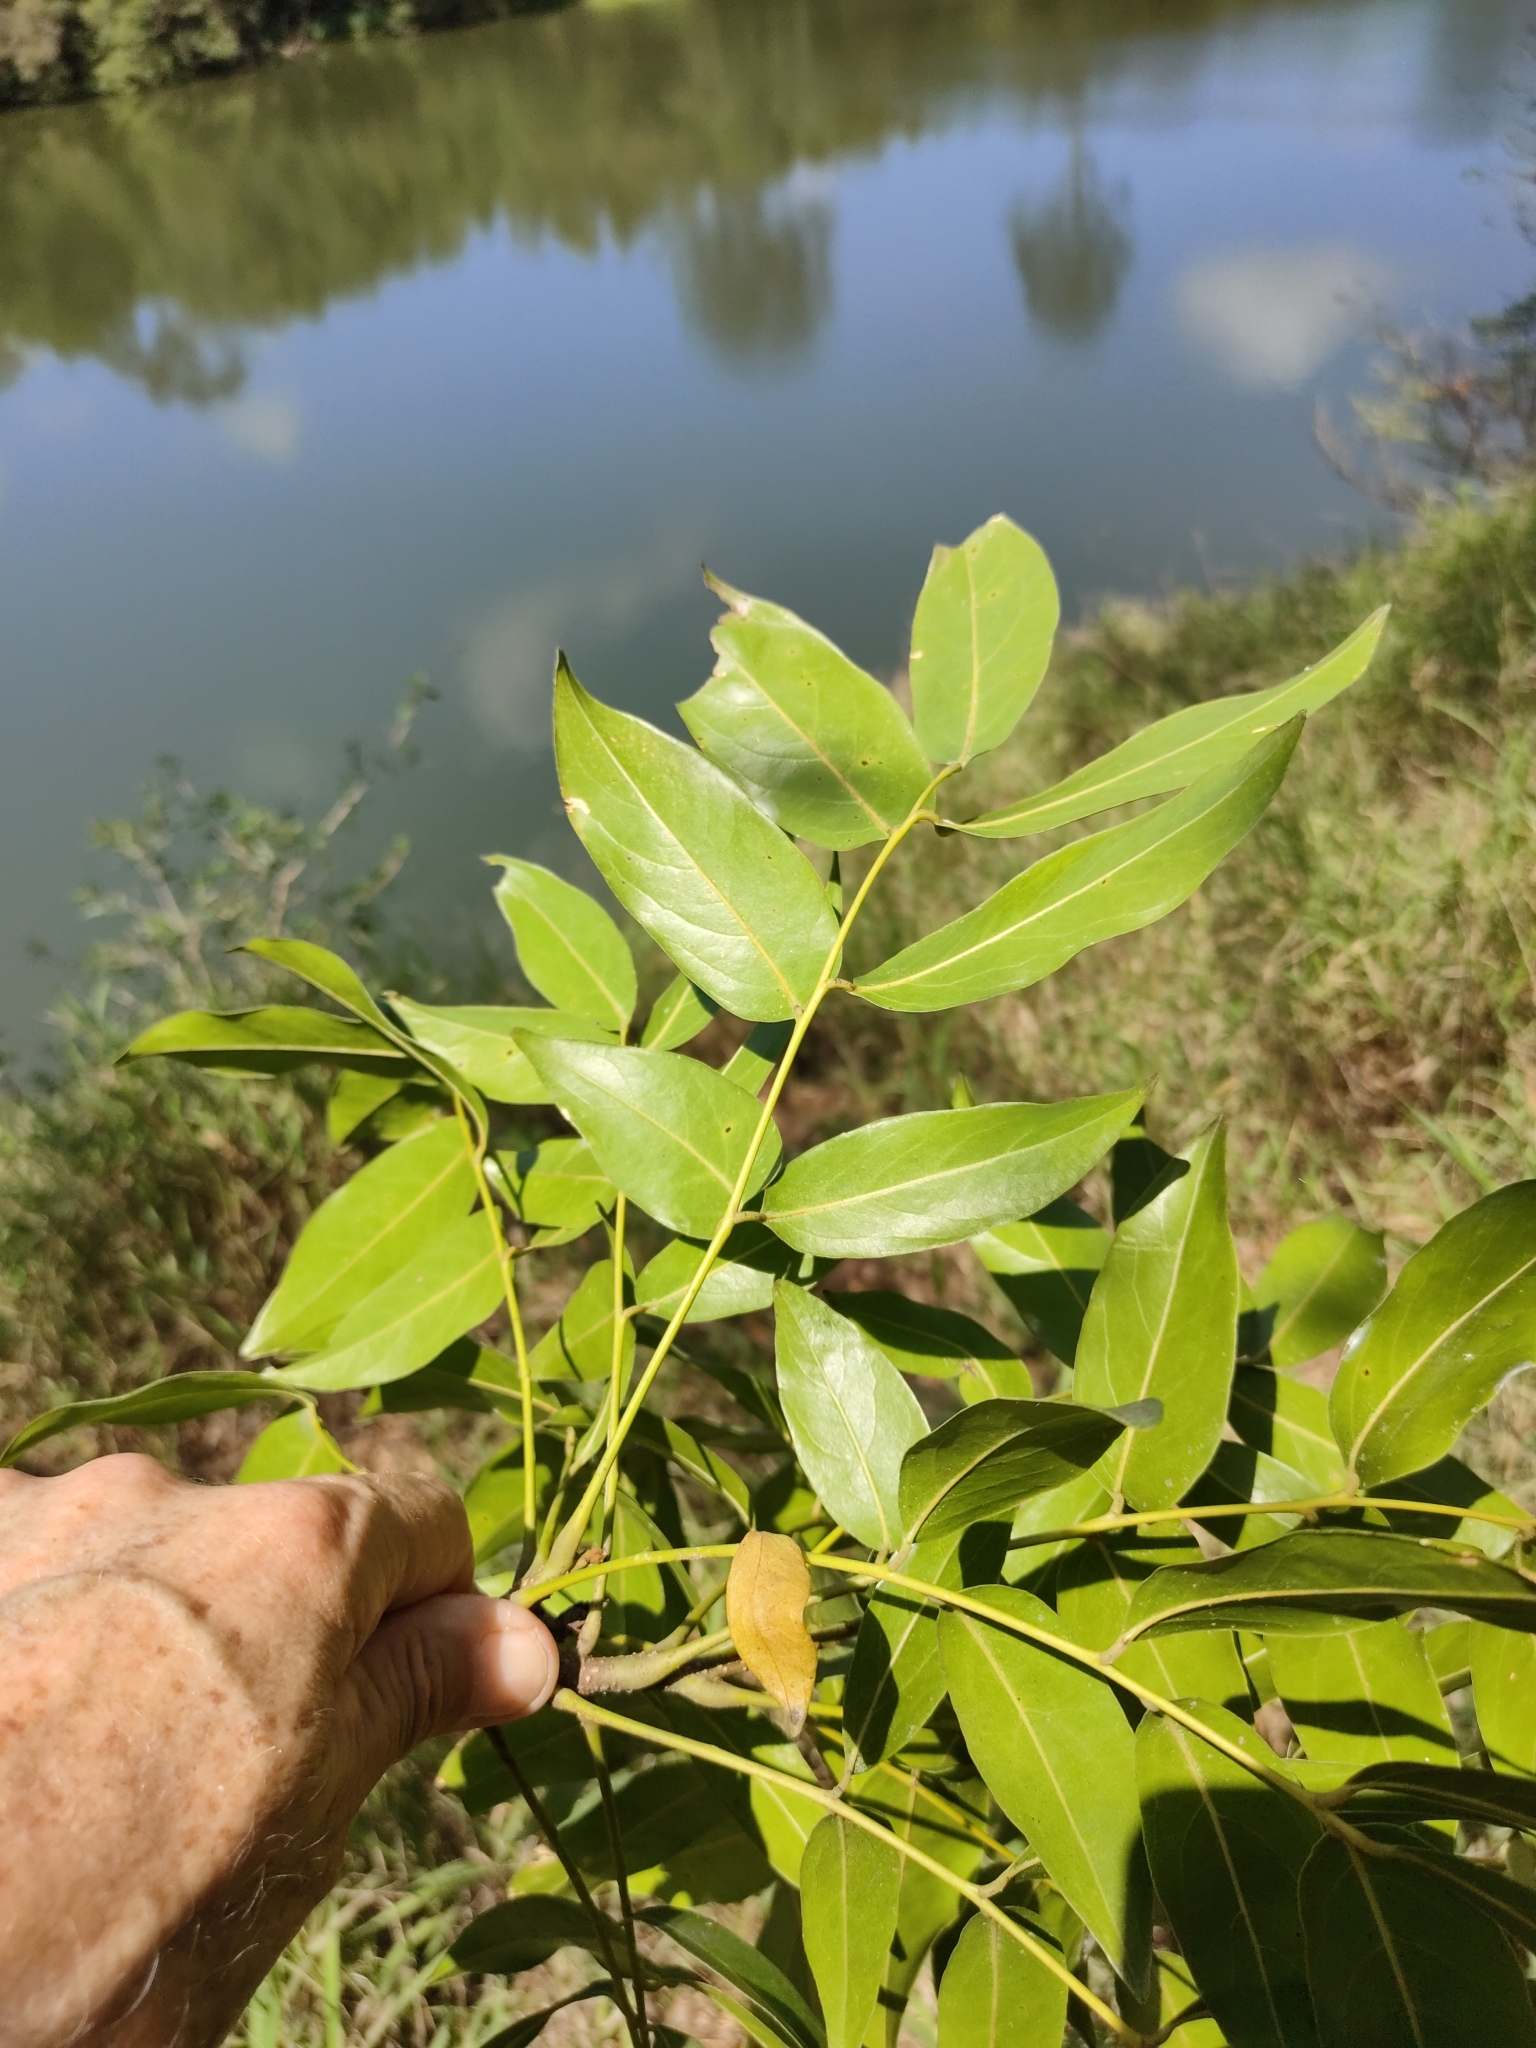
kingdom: Plantae
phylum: Tracheophyta
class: Magnoliopsida
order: Fabales
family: Fabaceae
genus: Castanospermum
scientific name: Castanospermum australe
